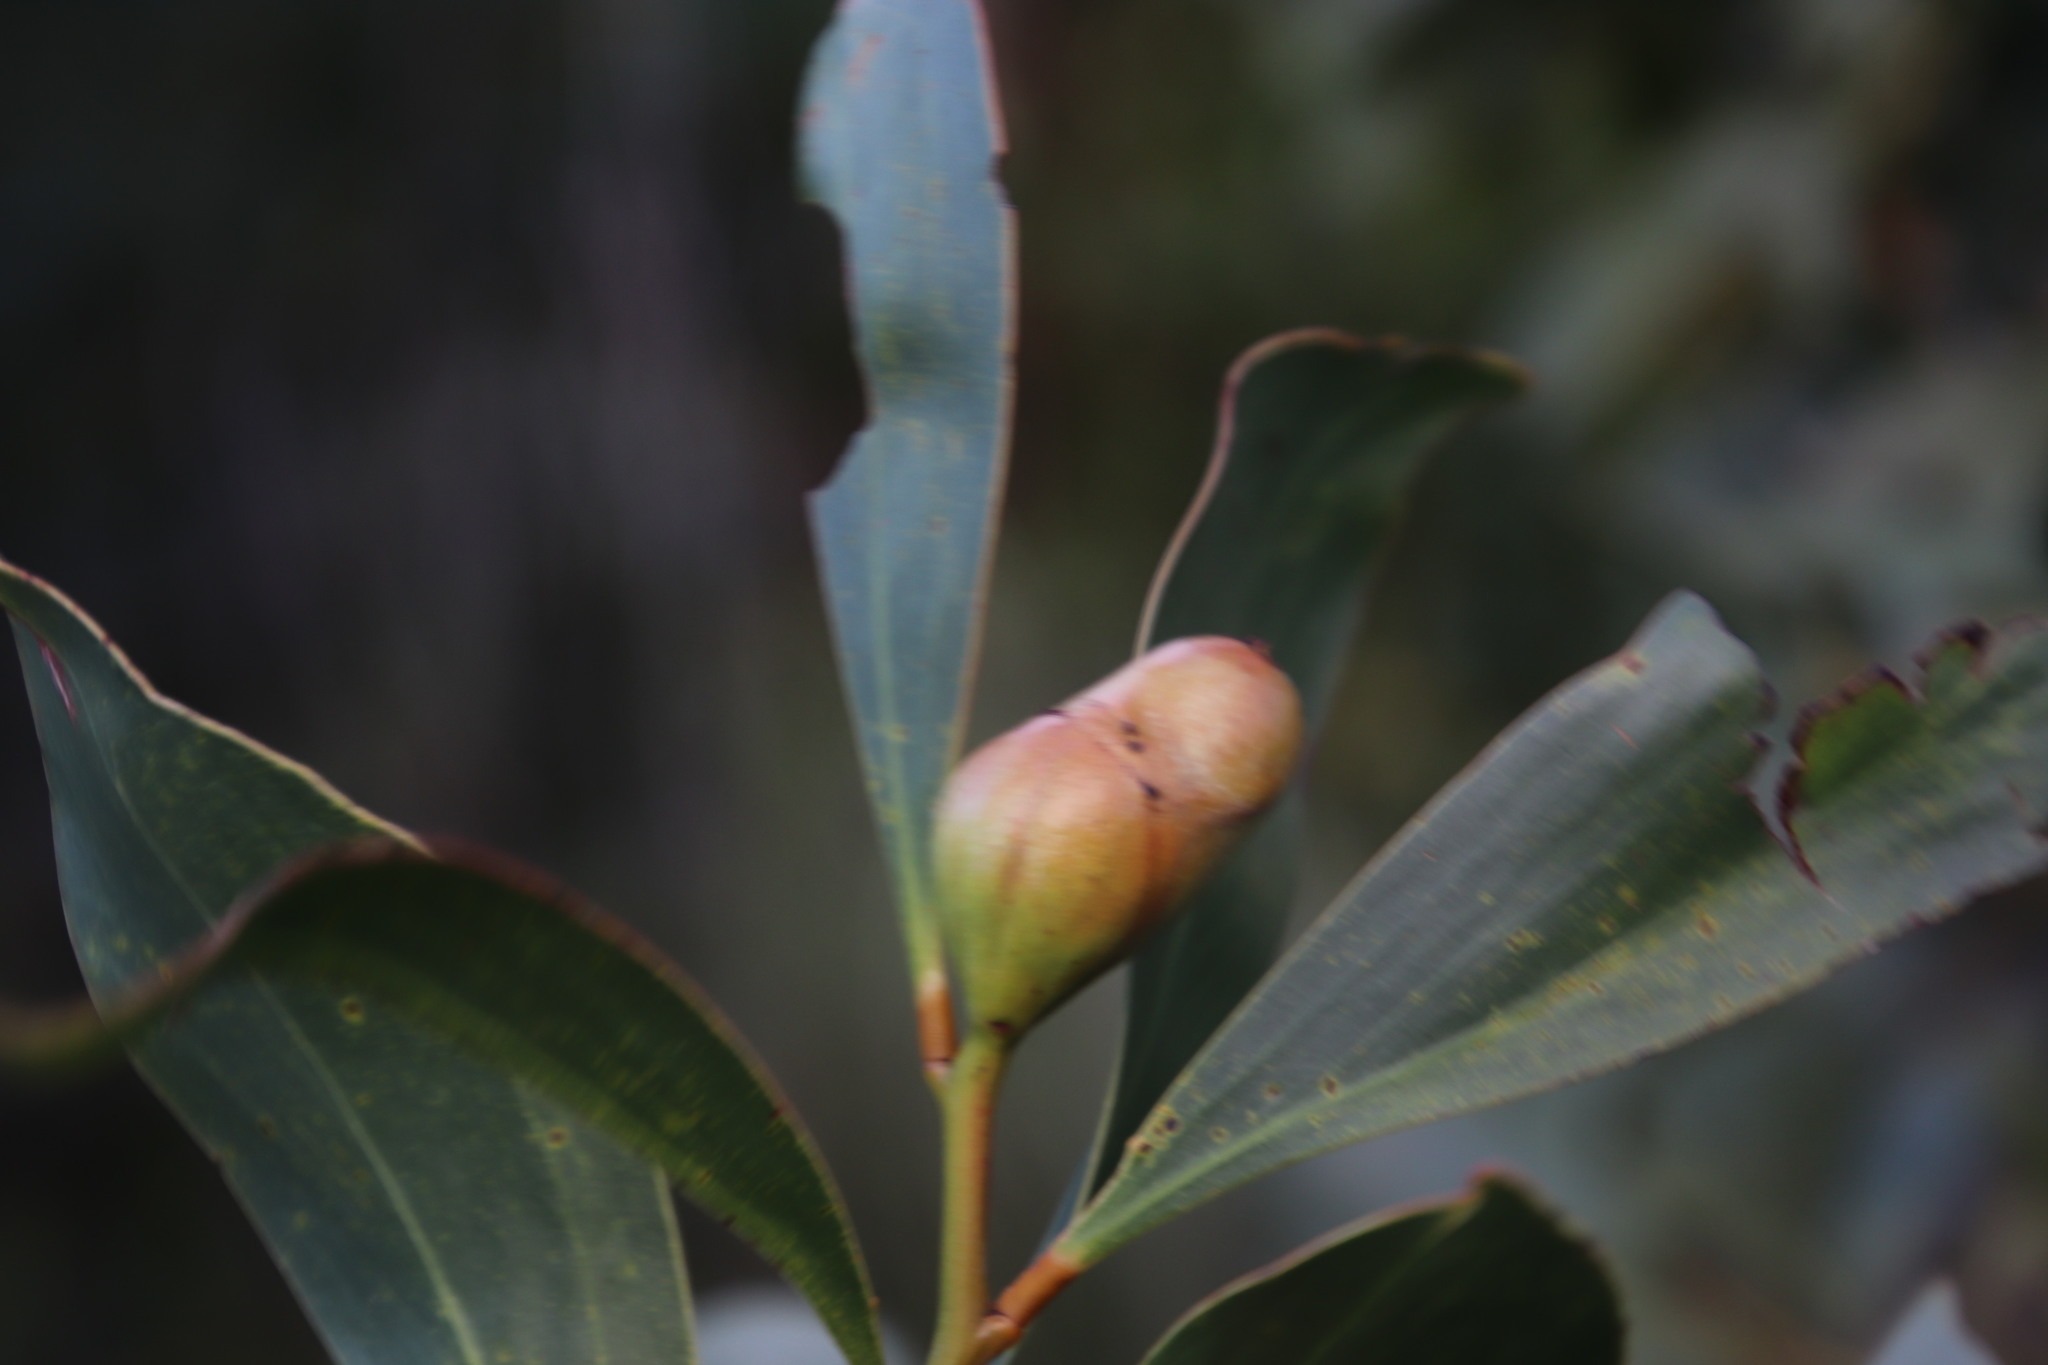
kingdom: Plantae
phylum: Tracheophyta
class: Magnoliopsida
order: Fabales
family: Fabaceae
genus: Acacia
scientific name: Acacia pycnantha
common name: Golden wattle
